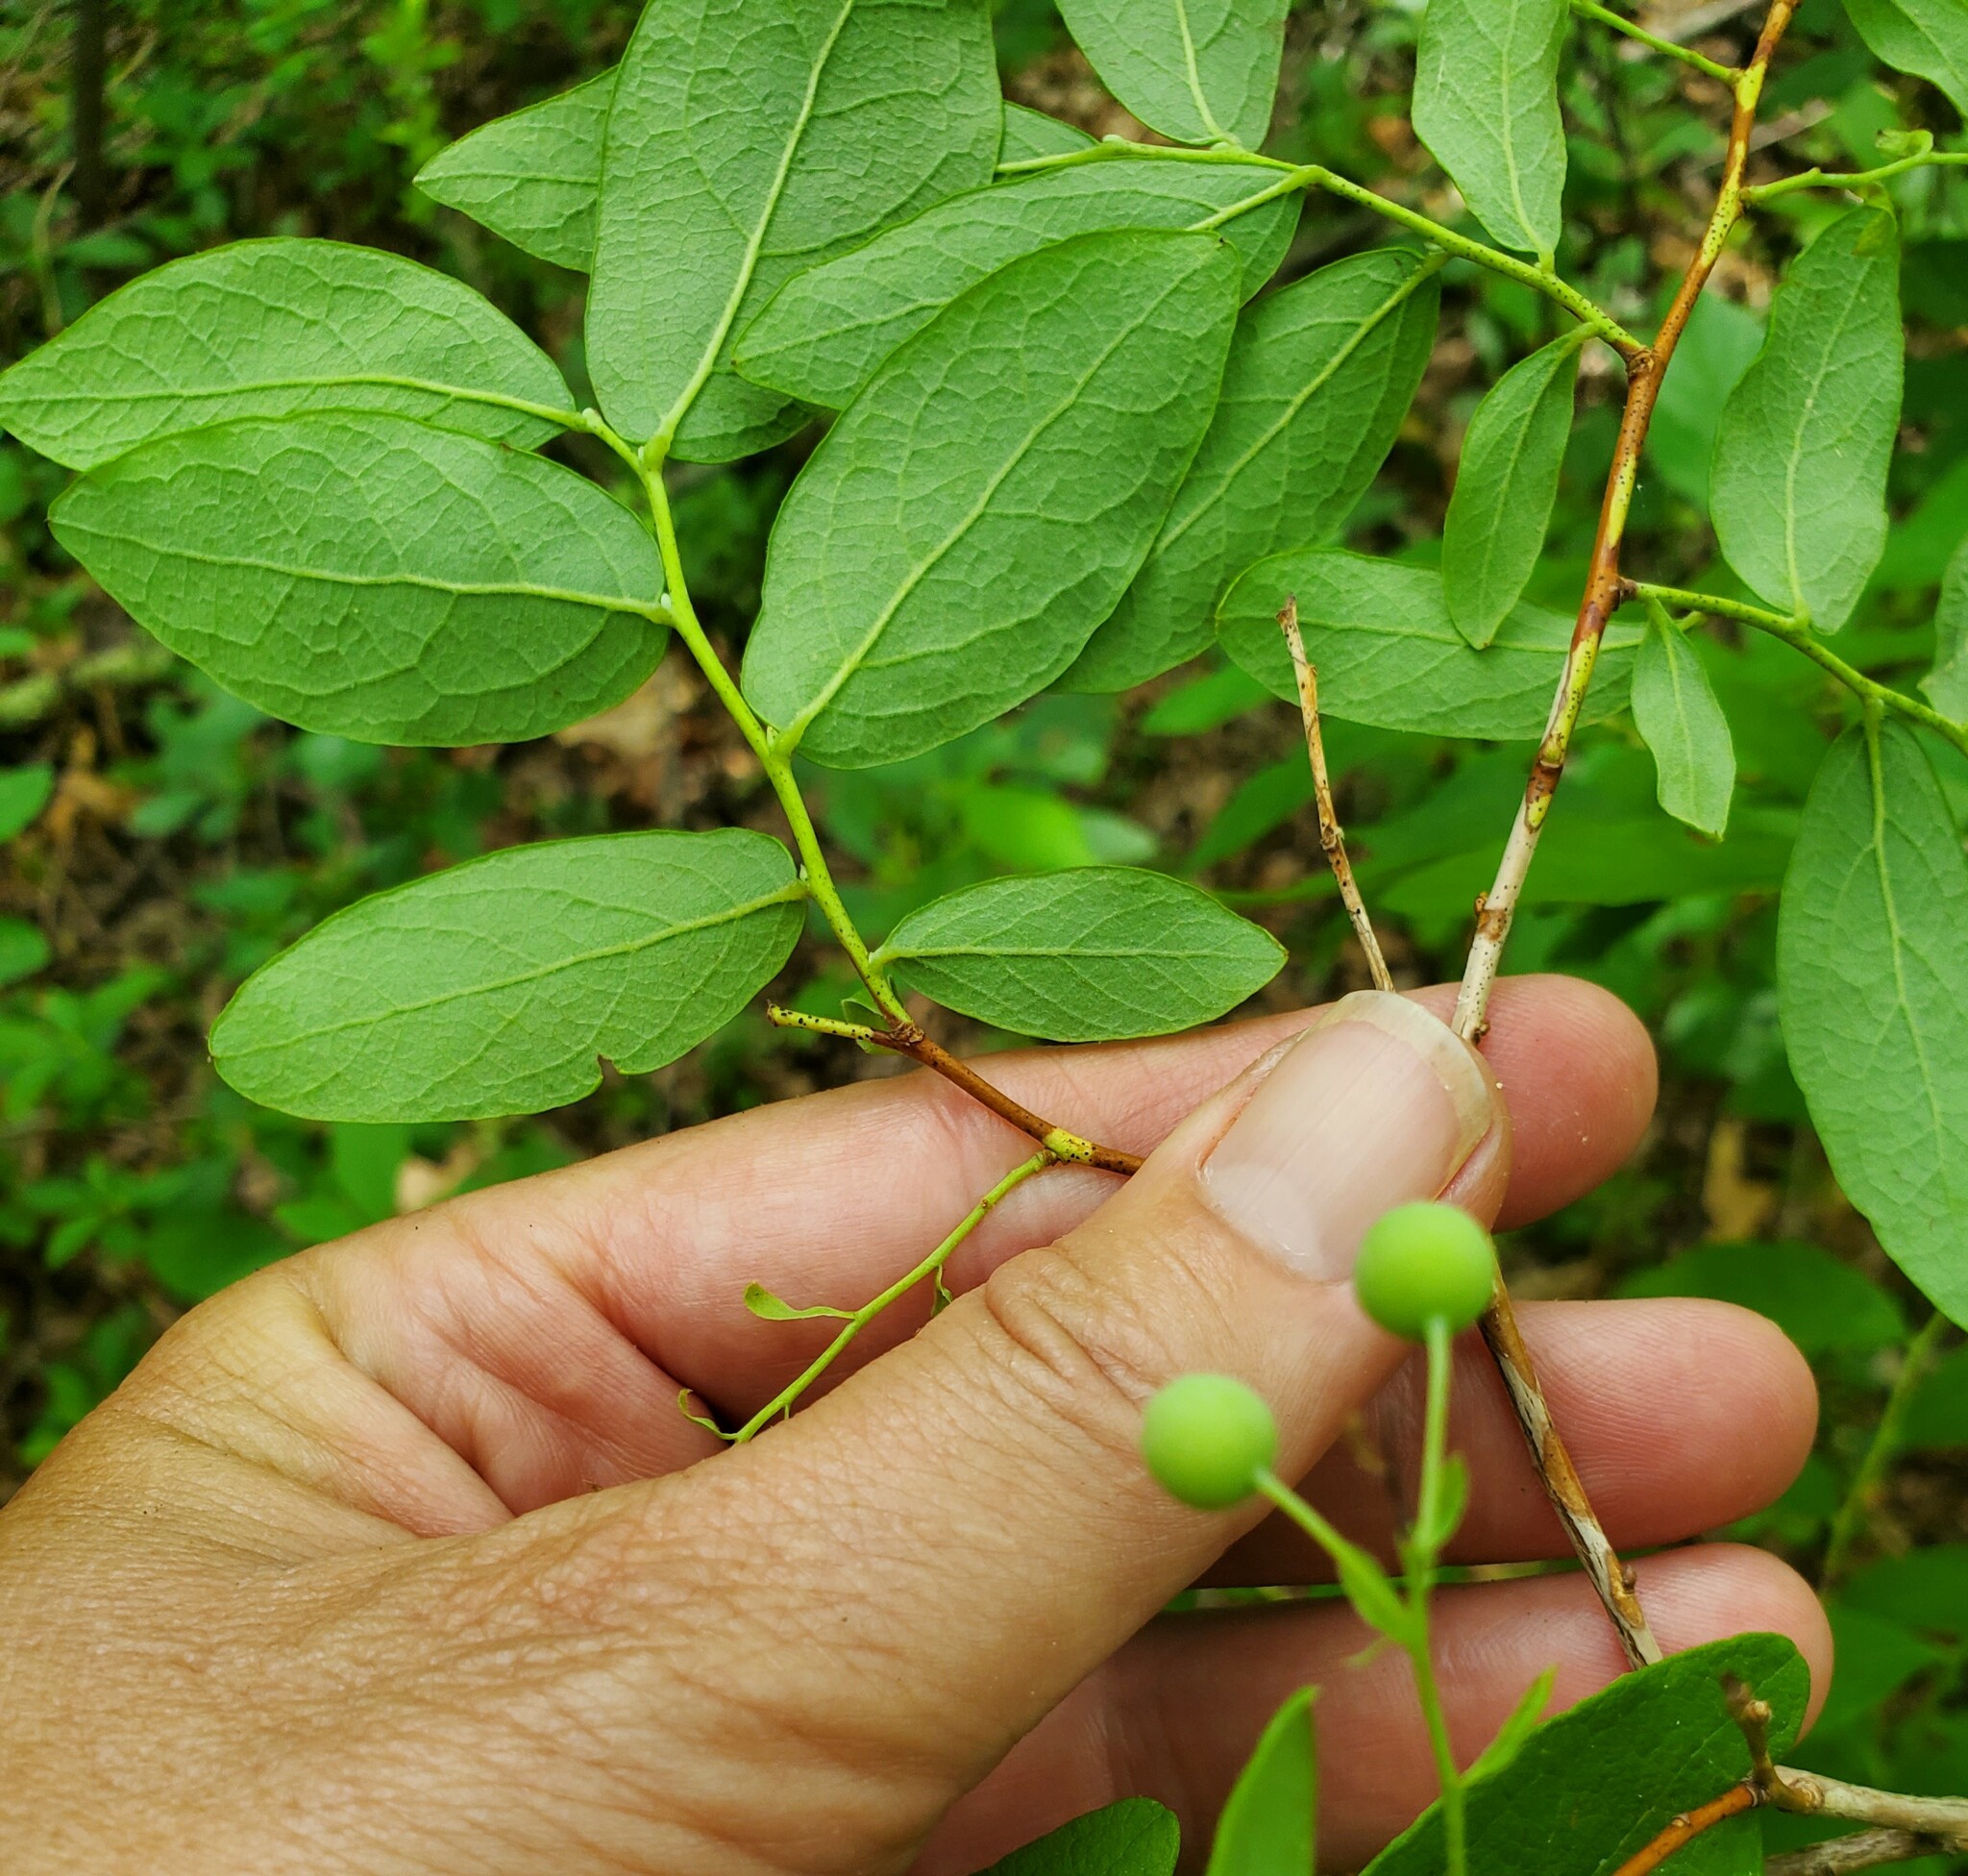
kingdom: Plantae
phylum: Tracheophyta
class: Magnoliopsida
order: Ericales
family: Ericaceae
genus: Gaylussacia
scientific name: Gaylussacia frondosa
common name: Dangleberry
